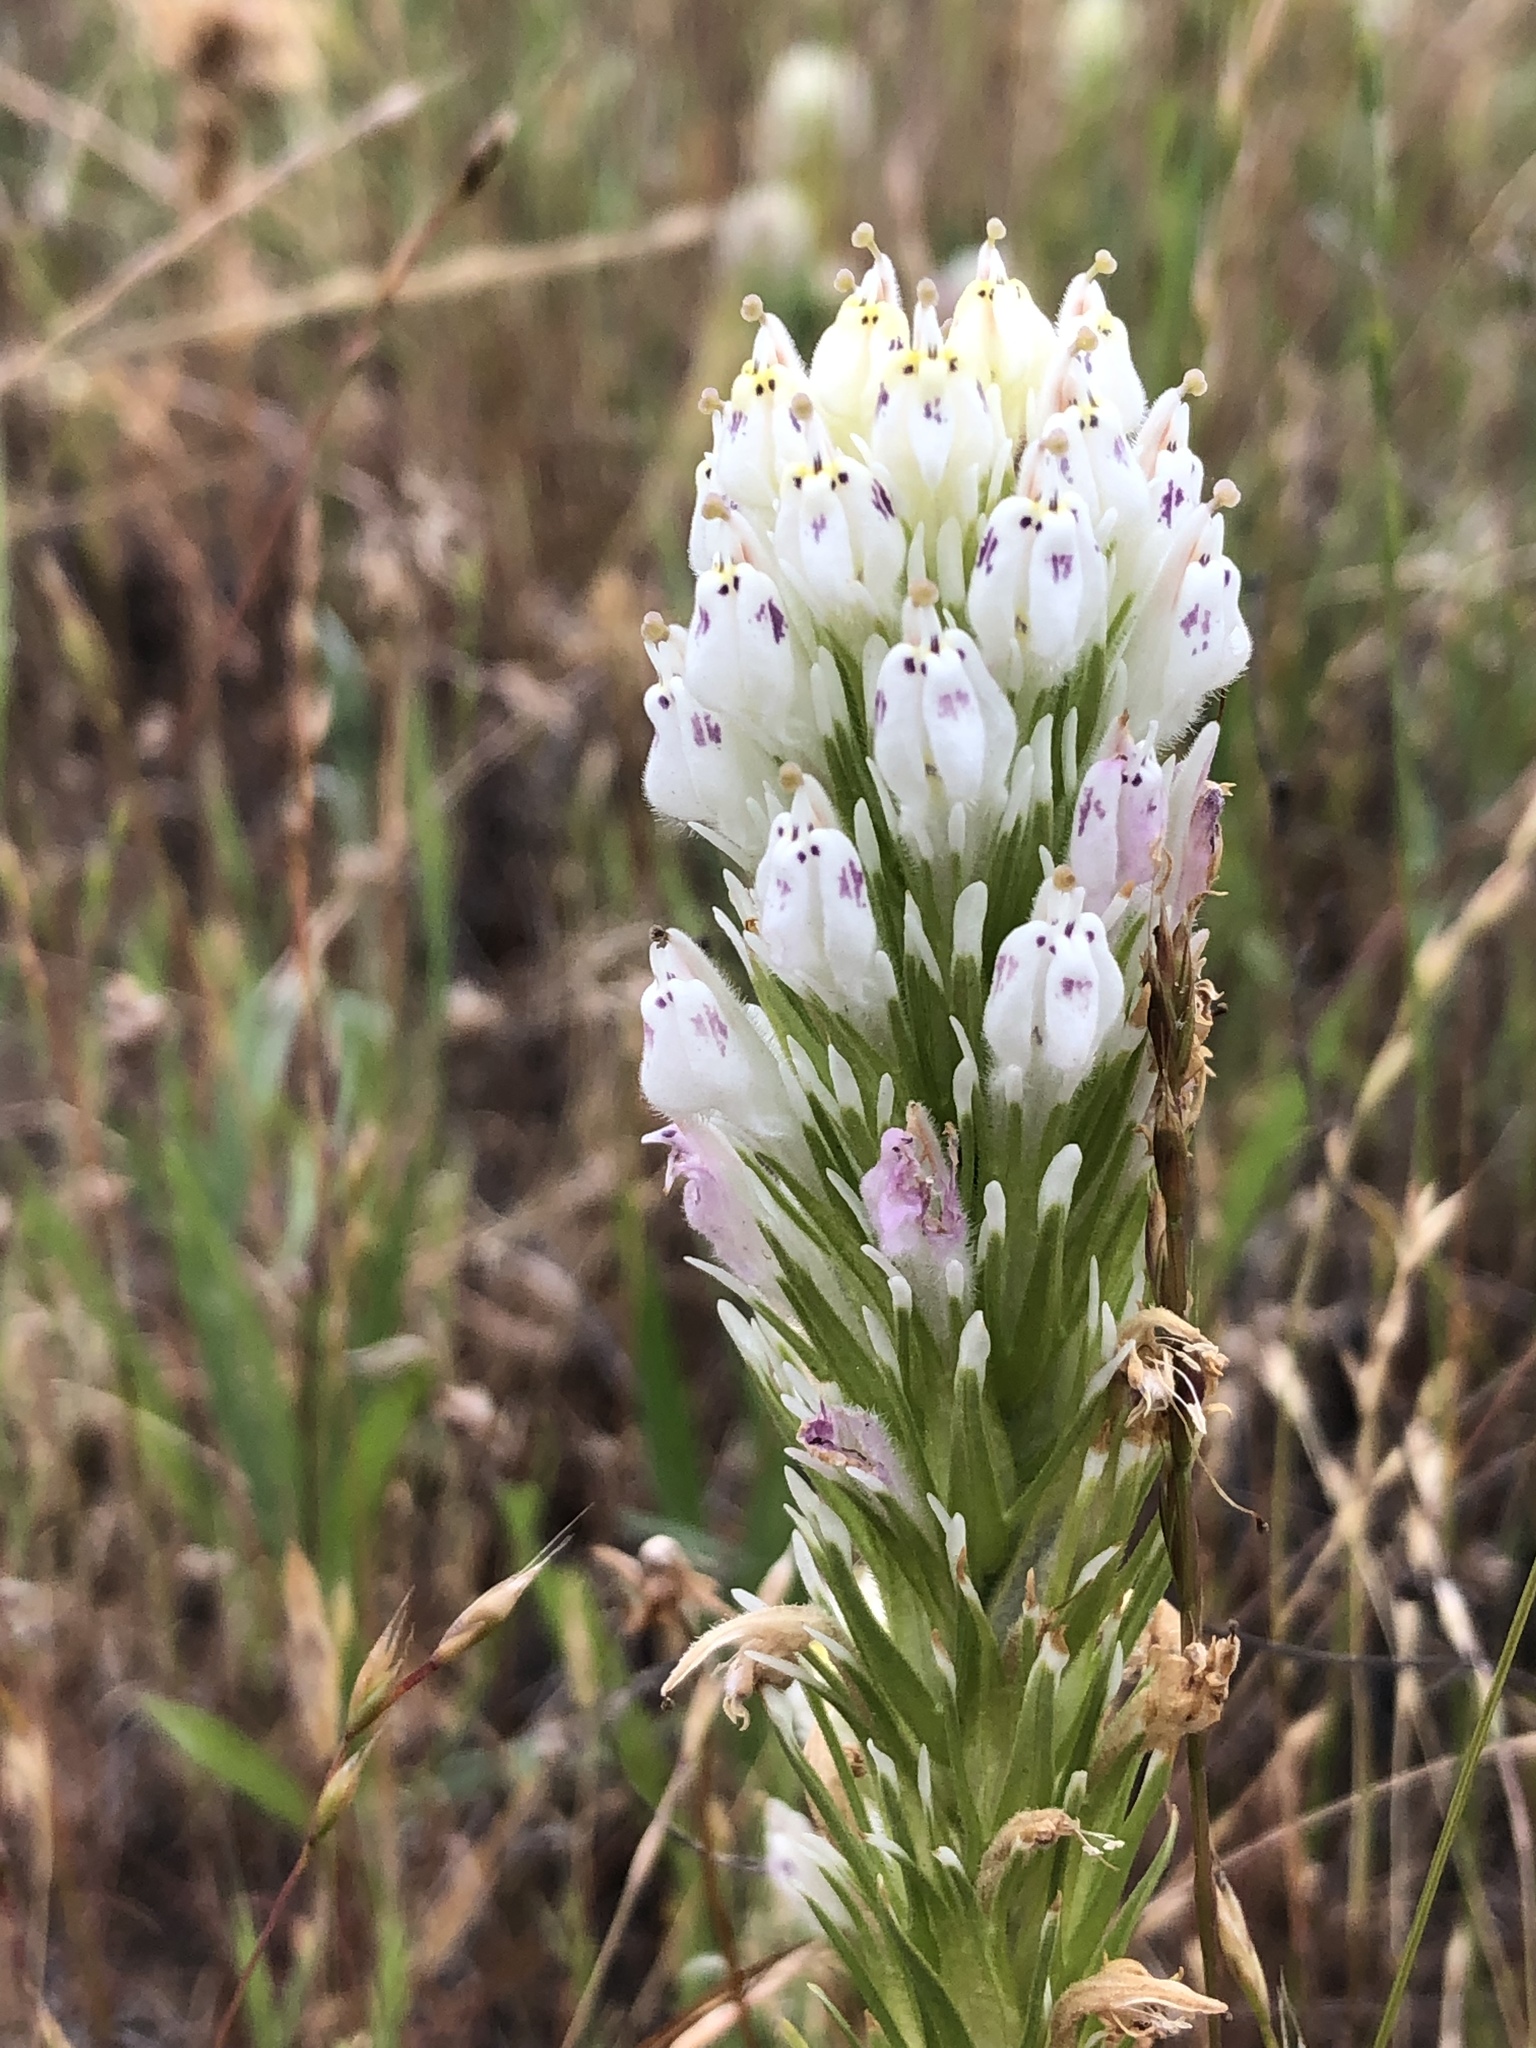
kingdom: Plantae
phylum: Tracheophyta
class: Magnoliopsida
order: Lamiales
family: Orobanchaceae
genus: Castilleja
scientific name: Castilleja densiflora
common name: Dense-flower indian paintbrush
